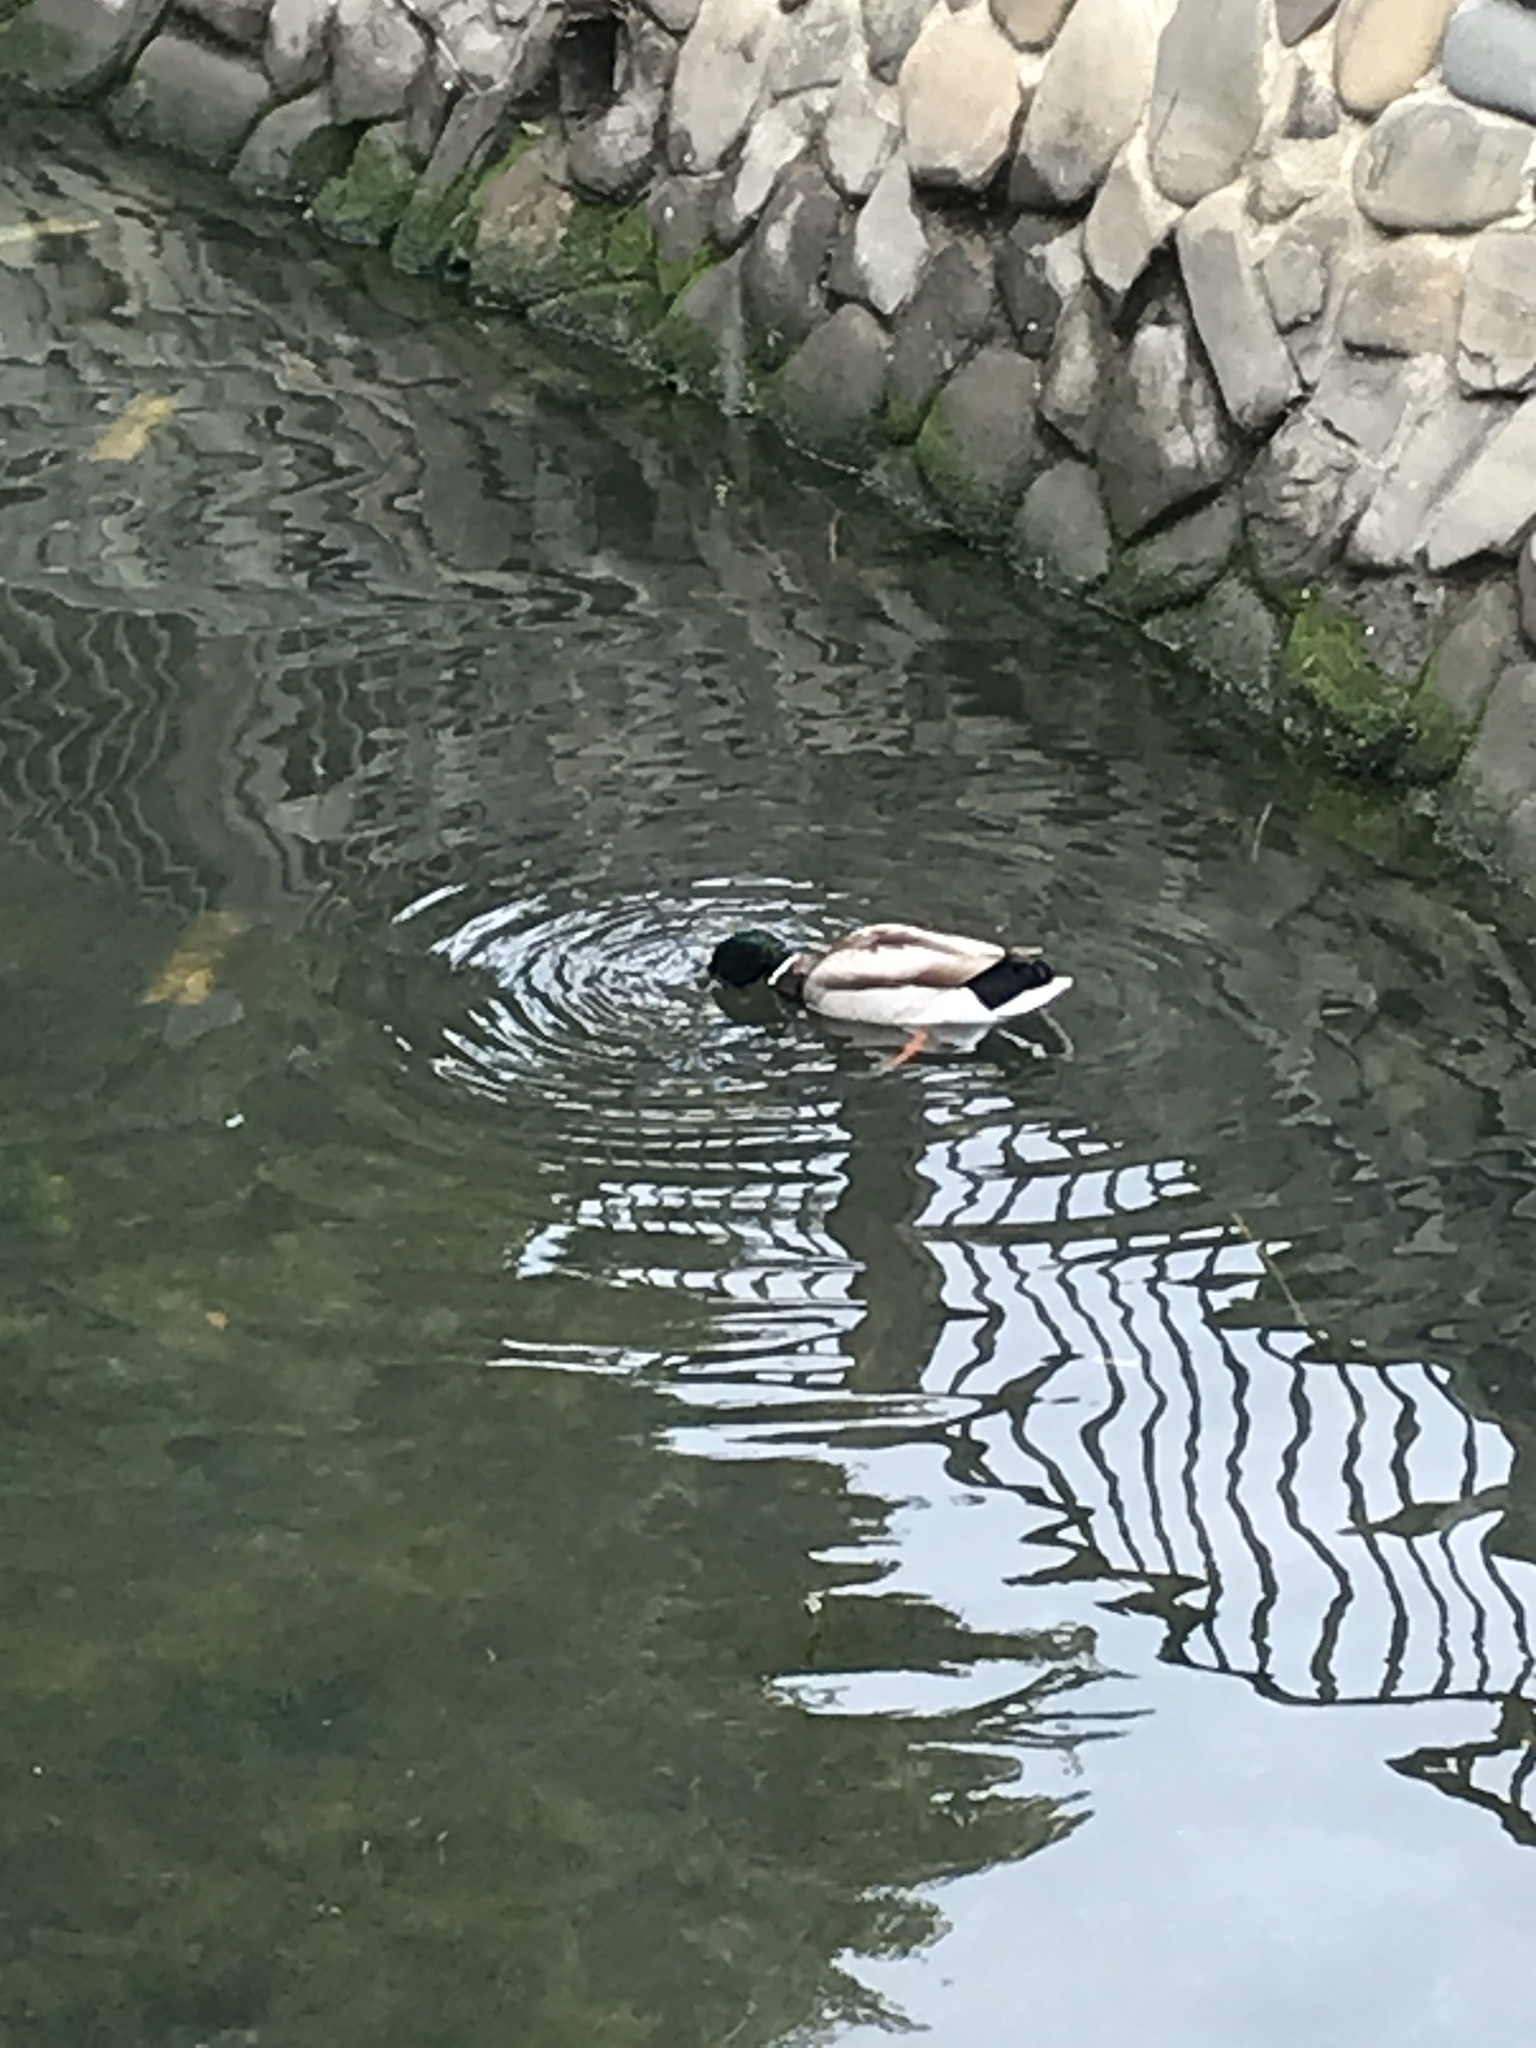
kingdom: Animalia
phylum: Chordata
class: Aves
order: Anseriformes
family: Anatidae
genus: Anas
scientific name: Anas platyrhynchos
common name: Mallard
